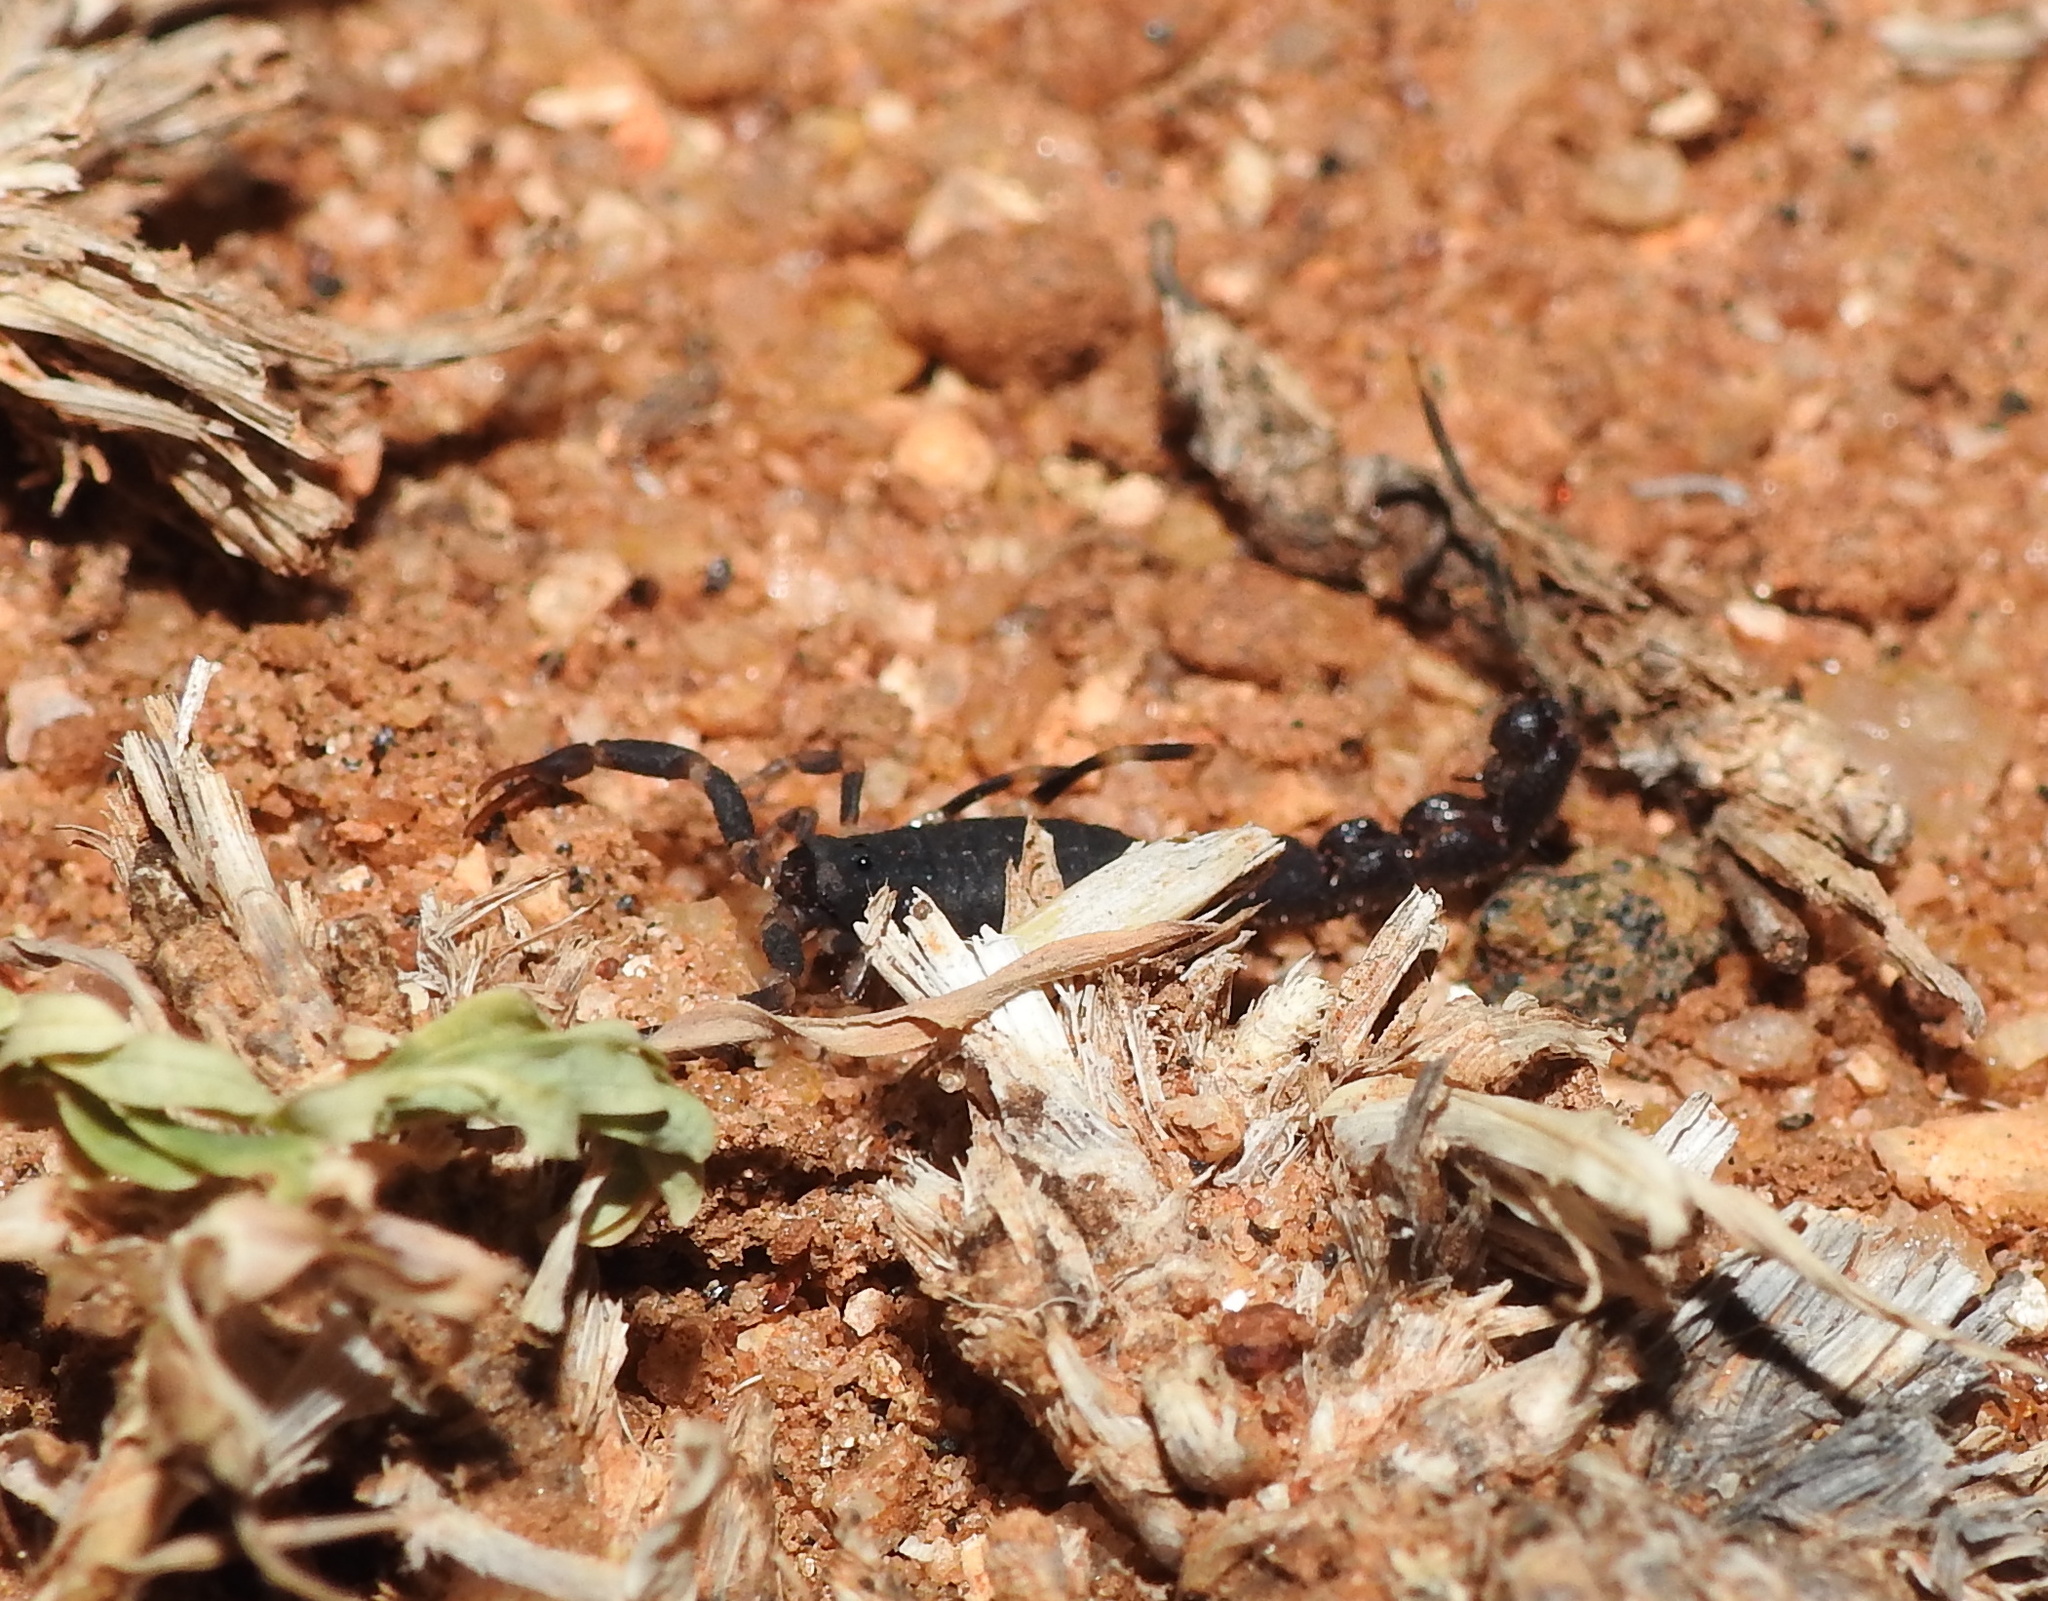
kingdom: Animalia
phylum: Arthropoda
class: Arachnida
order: Scorpiones
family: Buthidae
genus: Charmus
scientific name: Charmus indicus
